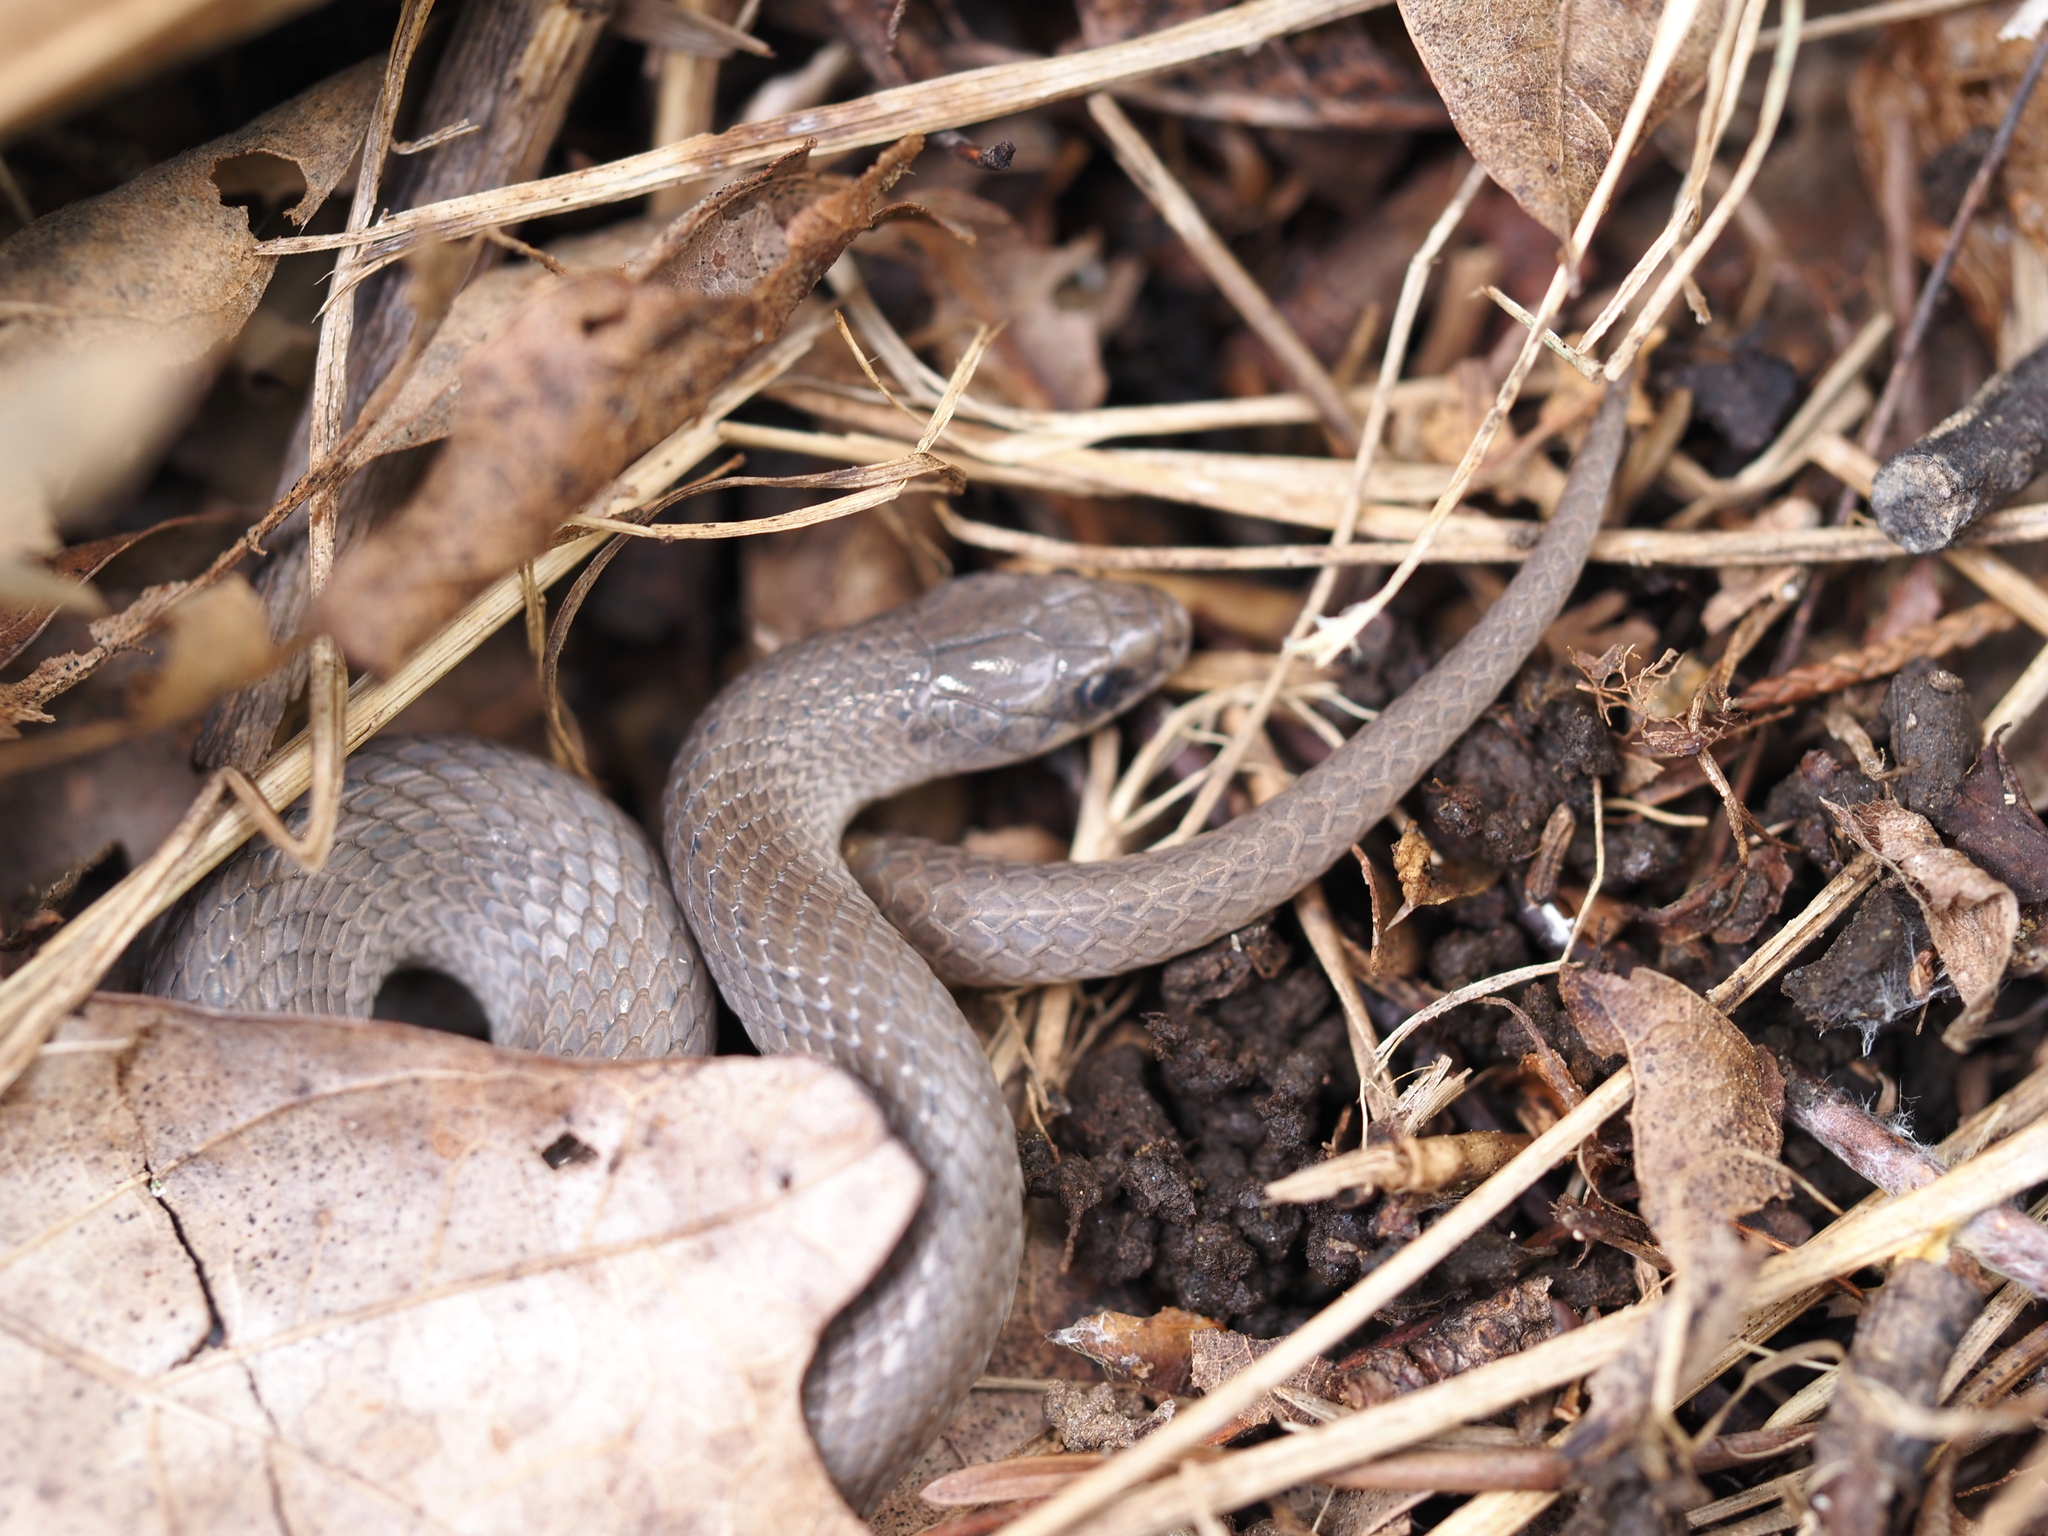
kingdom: Animalia
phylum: Chordata
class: Squamata
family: Colubridae
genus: Virginia
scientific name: Virginia valeriae
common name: Smooth earth snake
